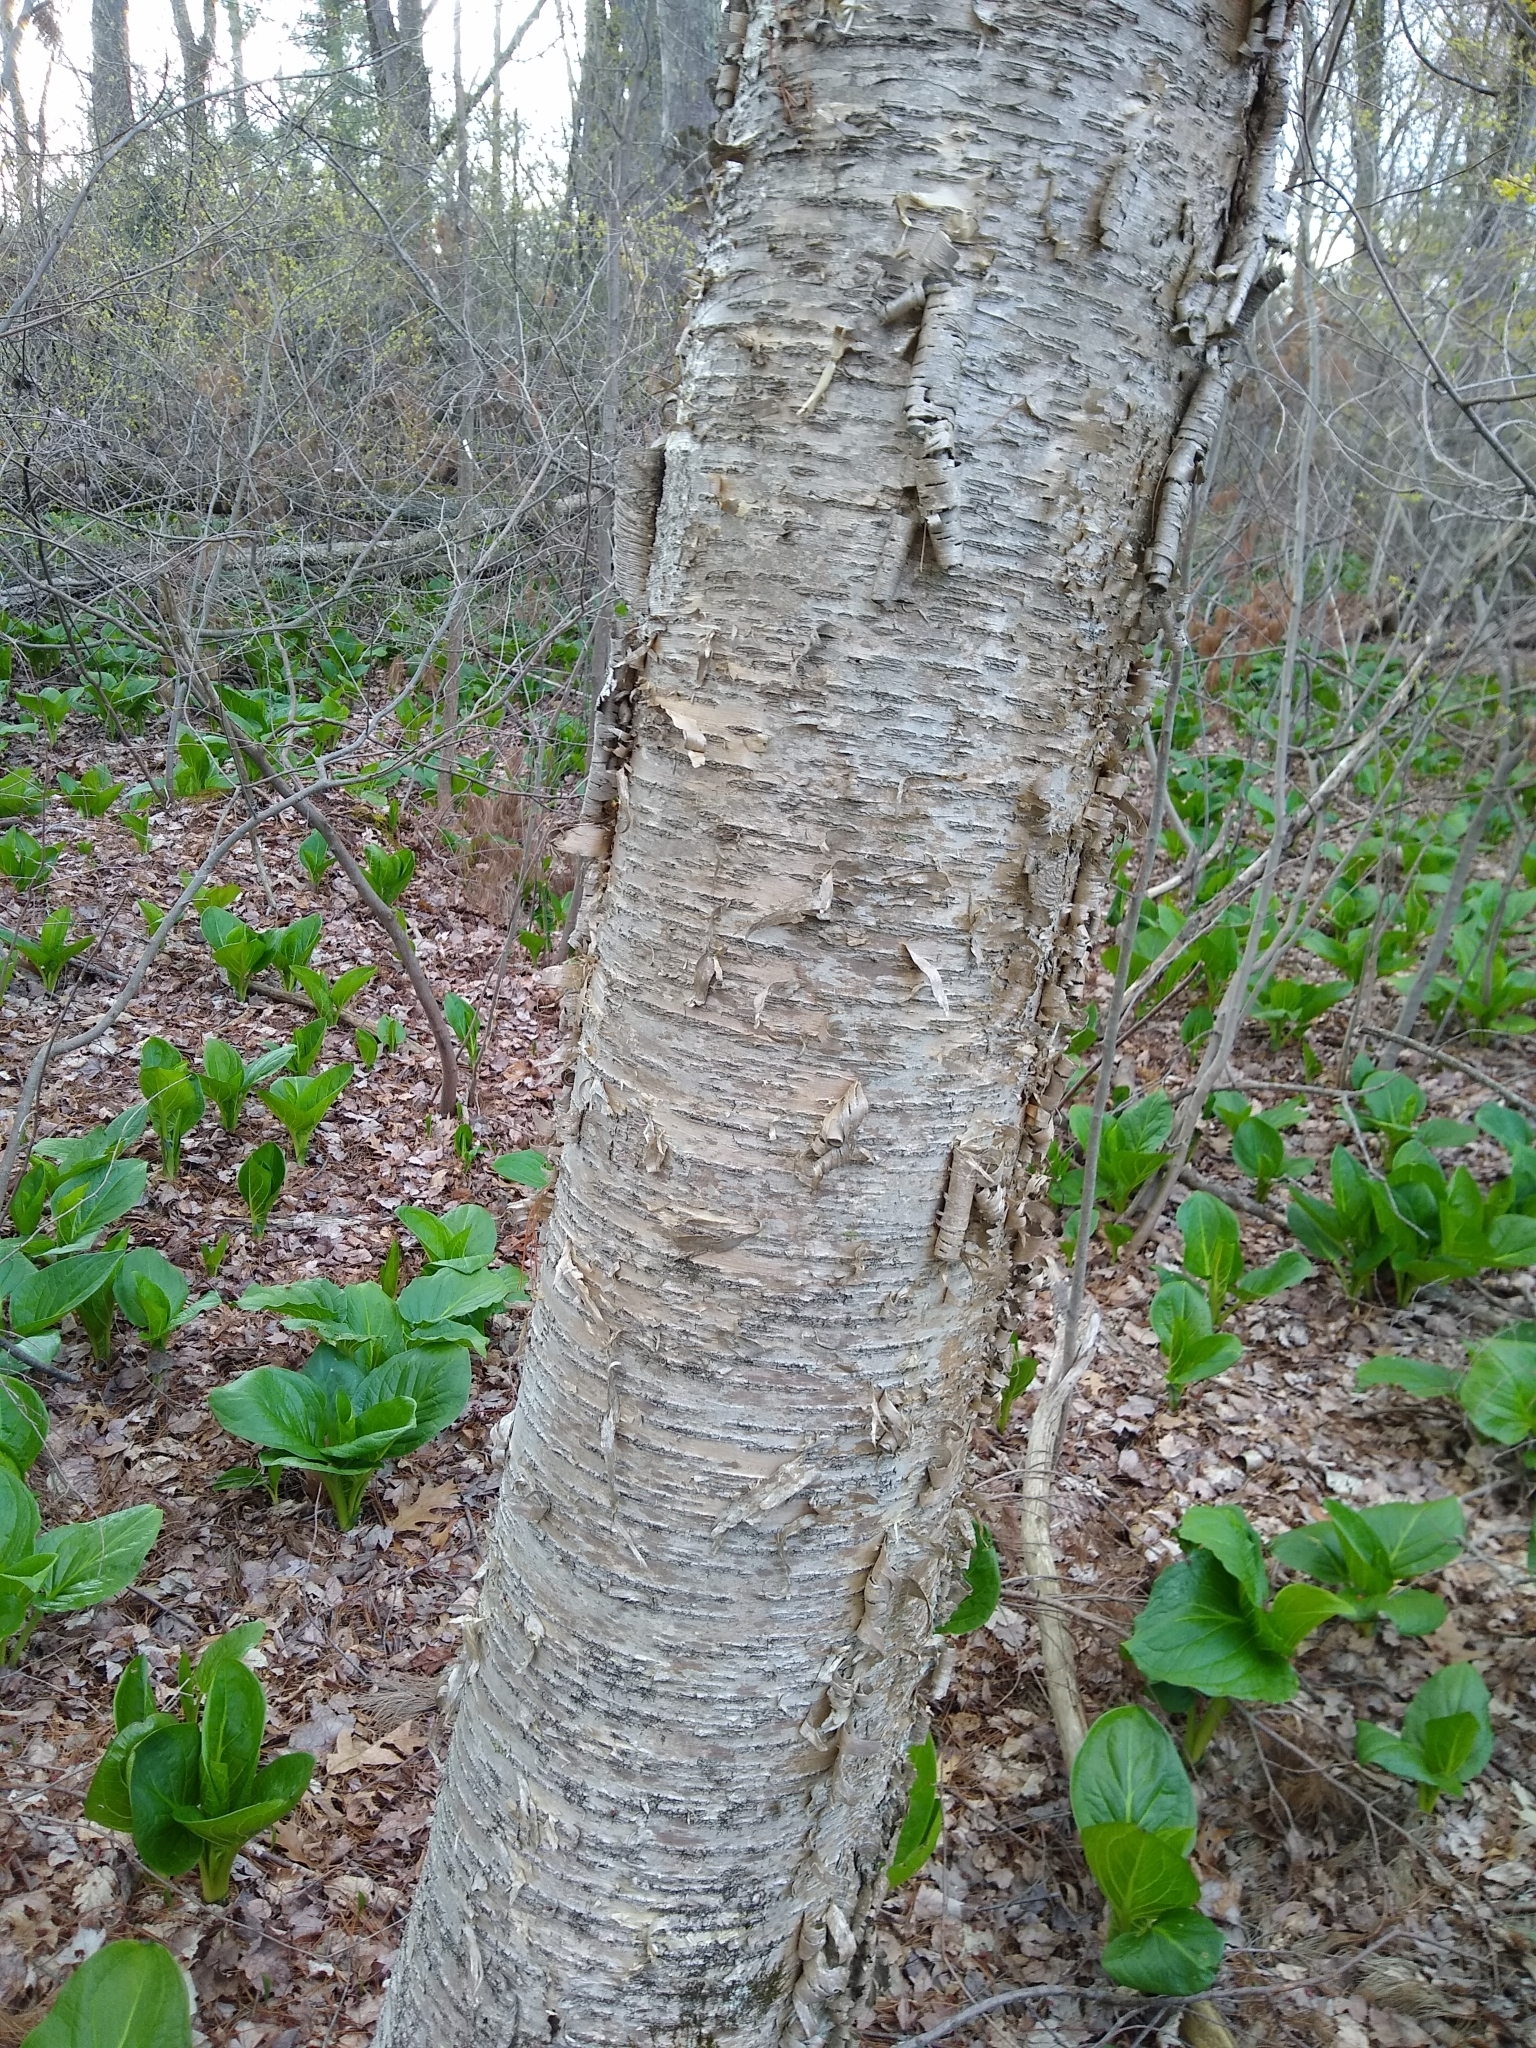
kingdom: Plantae
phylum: Tracheophyta
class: Magnoliopsida
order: Fagales
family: Betulaceae
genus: Betula
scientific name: Betula alleghaniensis
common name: Yellow birch
